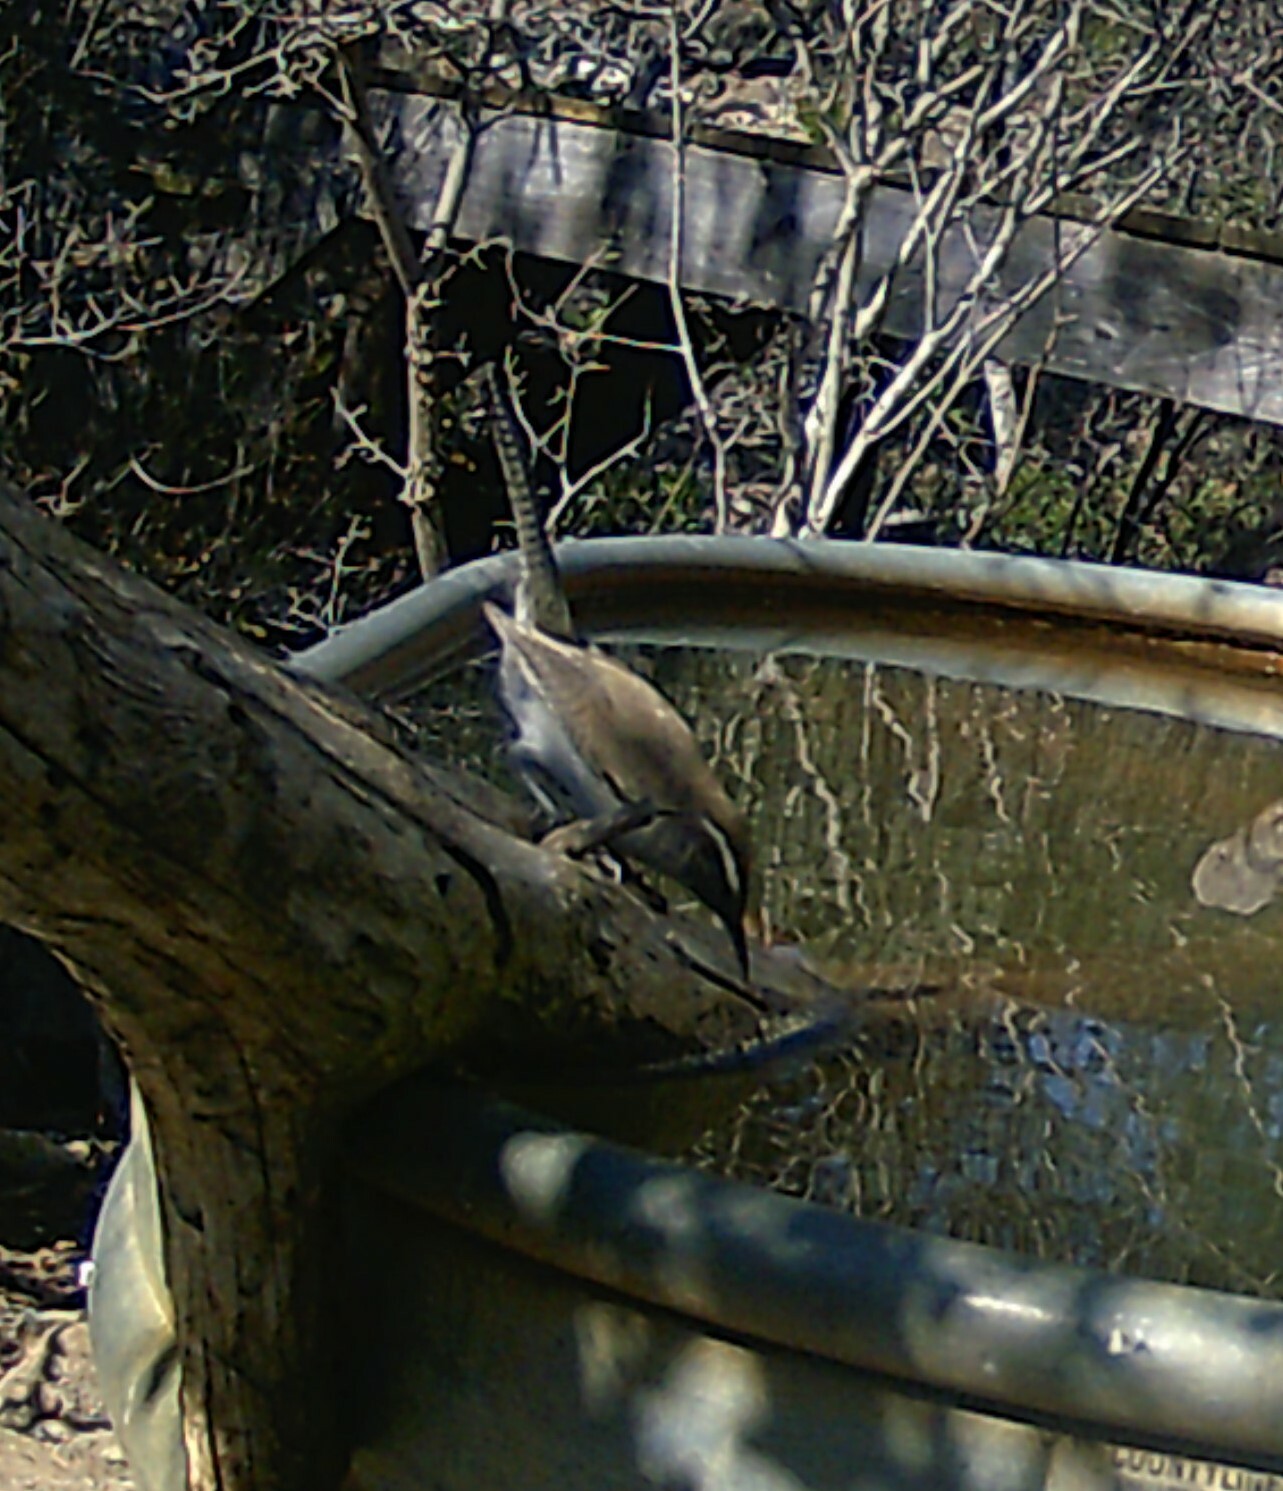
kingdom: Animalia
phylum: Chordata
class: Aves
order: Passeriformes
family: Troglodytidae
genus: Thryomanes
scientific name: Thryomanes bewickii
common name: Bewick's wren
